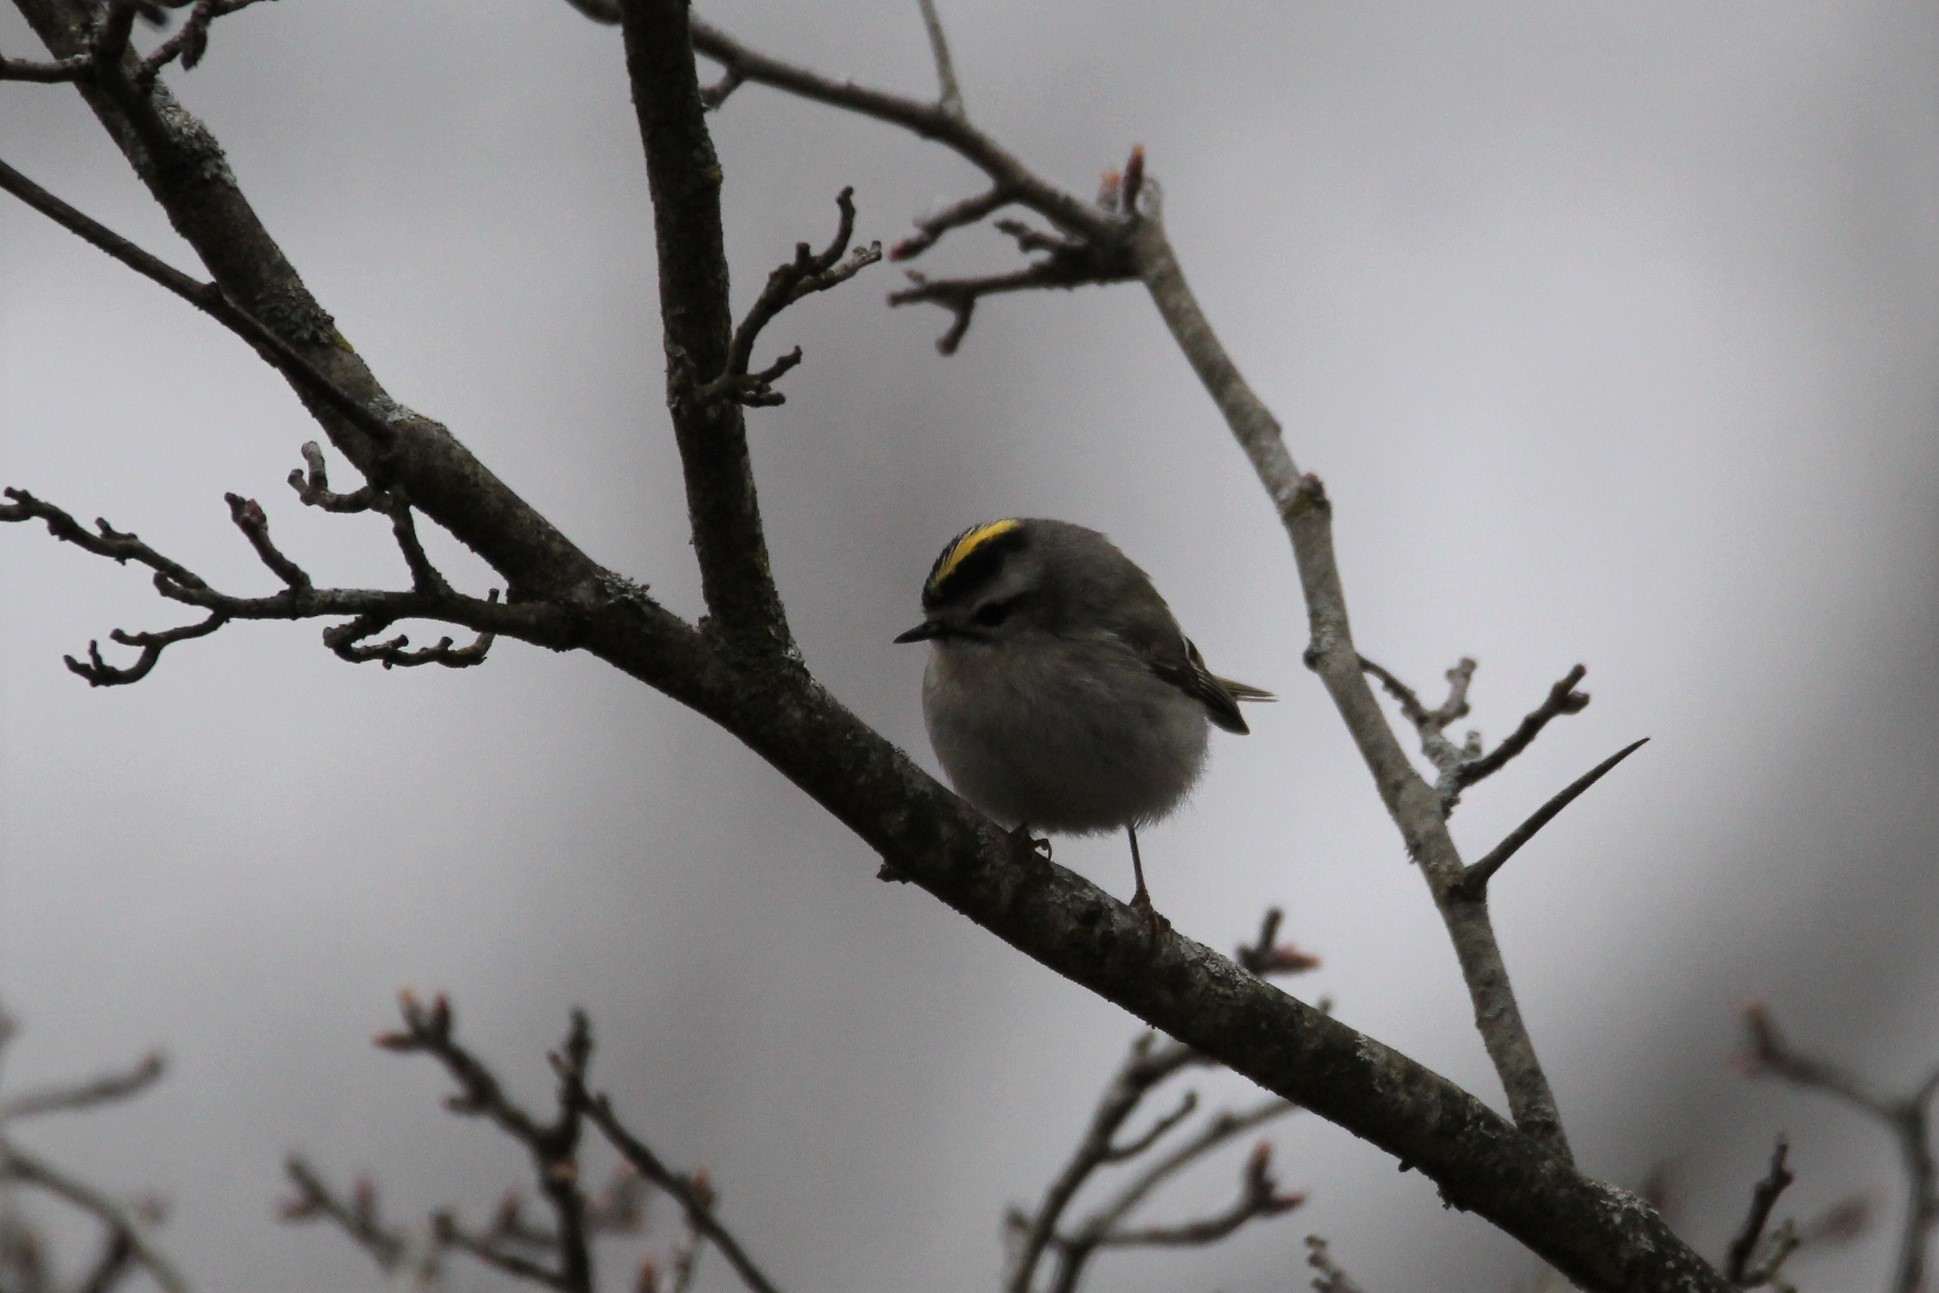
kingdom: Animalia
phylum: Chordata
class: Aves
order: Passeriformes
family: Regulidae
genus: Regulus
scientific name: Regulus satrapa
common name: Golden-crowned kinglet
